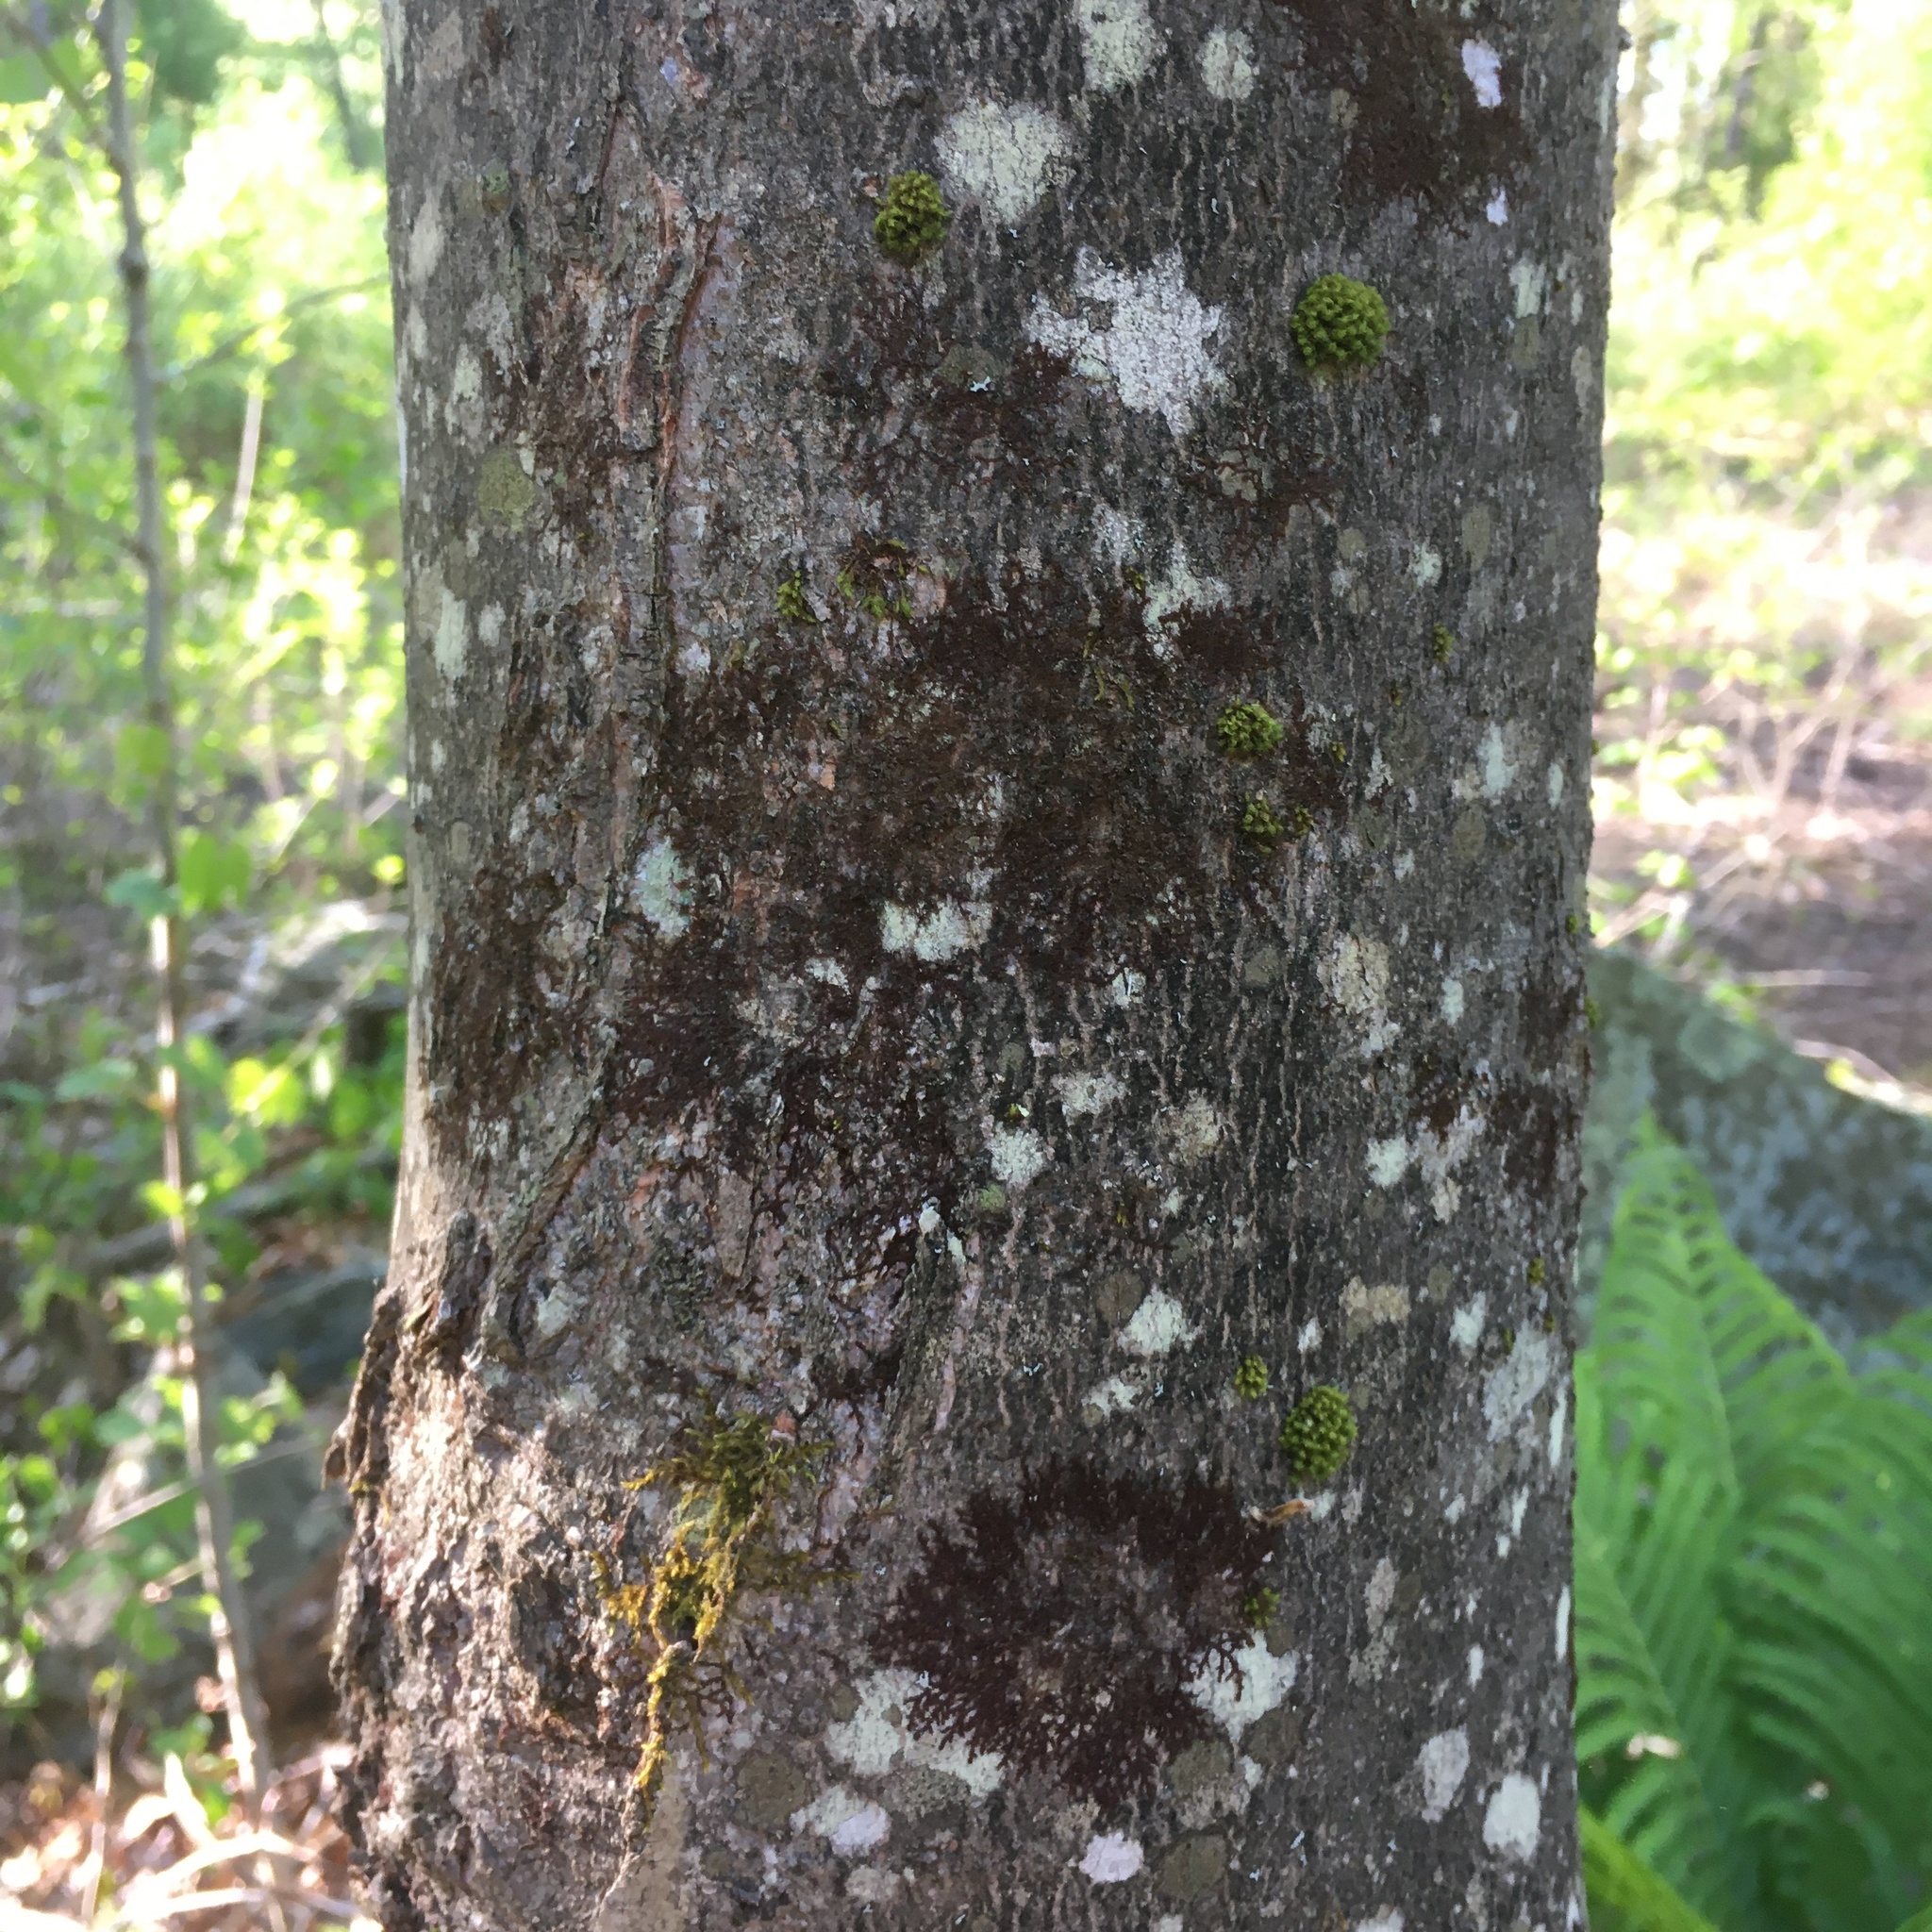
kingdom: Plantae
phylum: Tracheophyta
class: Magnoliopsida
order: Sapindales
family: Sapindaceae
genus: Acer
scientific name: Acer rubrum
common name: Red maple
